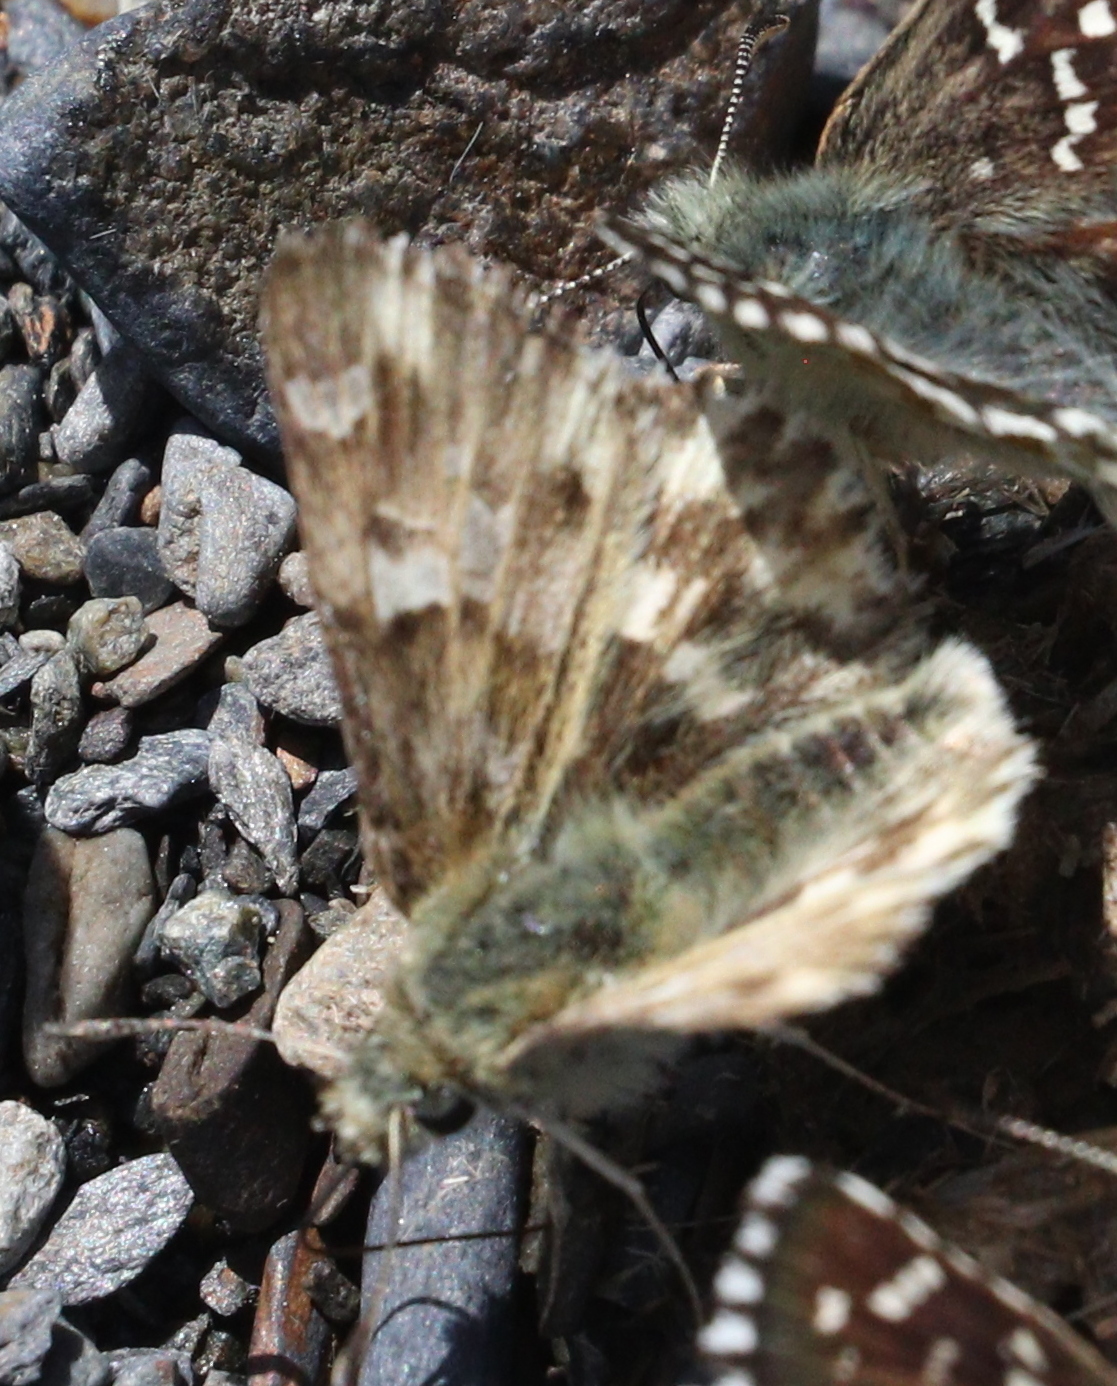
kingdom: Animalia
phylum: Arthropoda
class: Insecta
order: Lepidoptera
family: Hesperiidae
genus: Carcharodus
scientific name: Carcharodus lavatherae
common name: Marbled skipper
